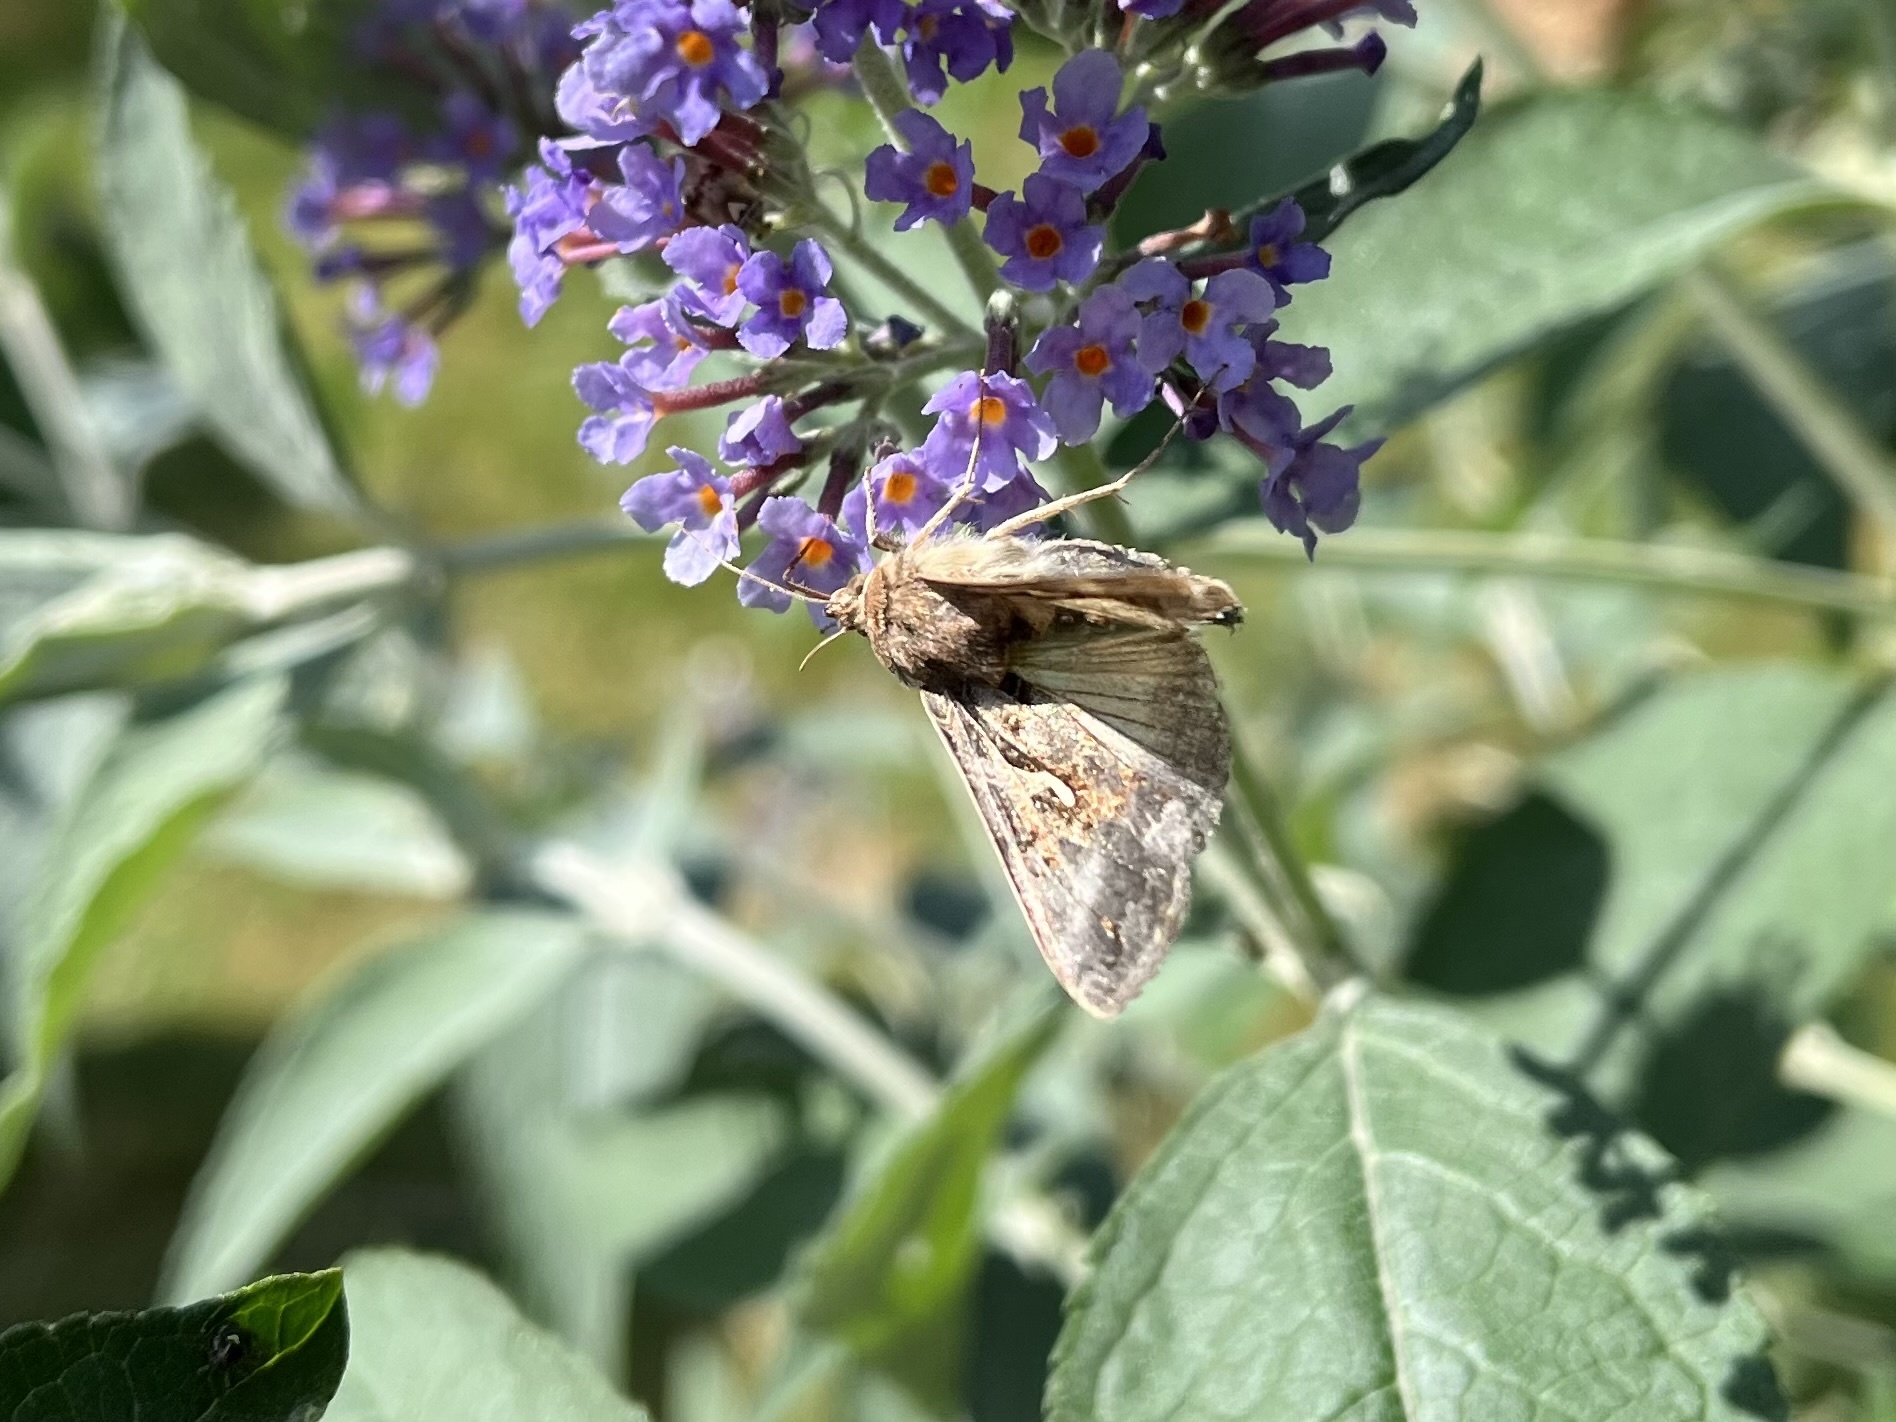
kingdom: Animalia
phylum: Arthropoda
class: Insecta
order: Lepidoptera
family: Noctuidae
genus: Autographa
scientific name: Autographa gamma
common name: Silver y
